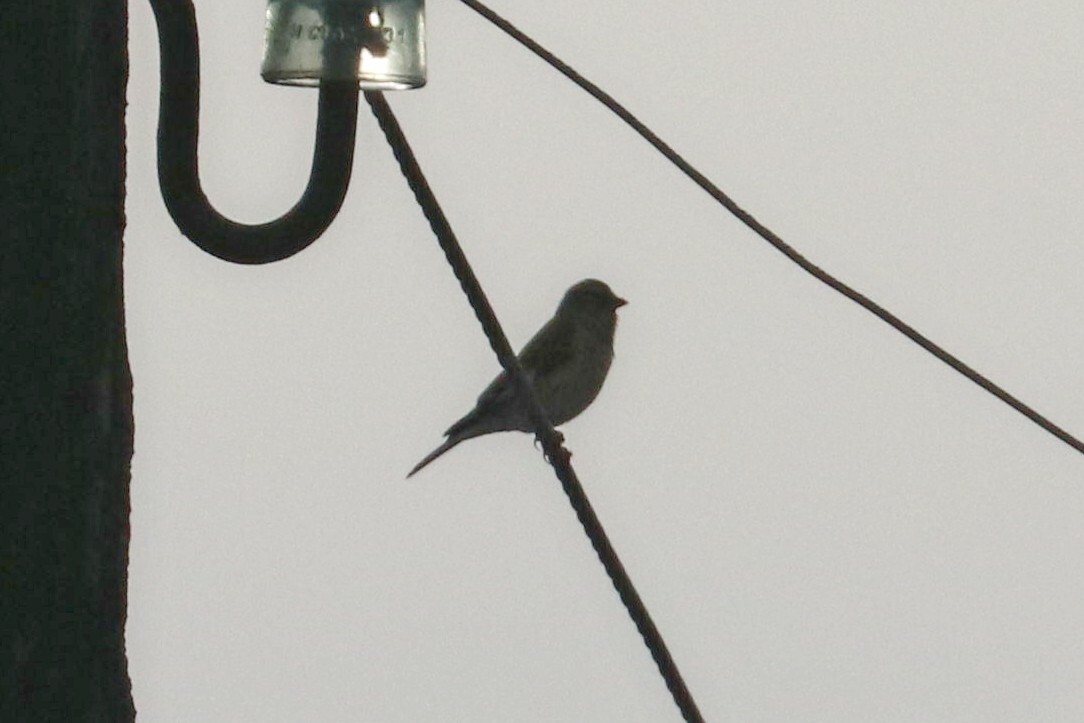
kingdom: Animalia
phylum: Chordata
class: Aves
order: Passeriformes
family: Fringillidae
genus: Linaria
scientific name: Linaria cannabina
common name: Common linnet
